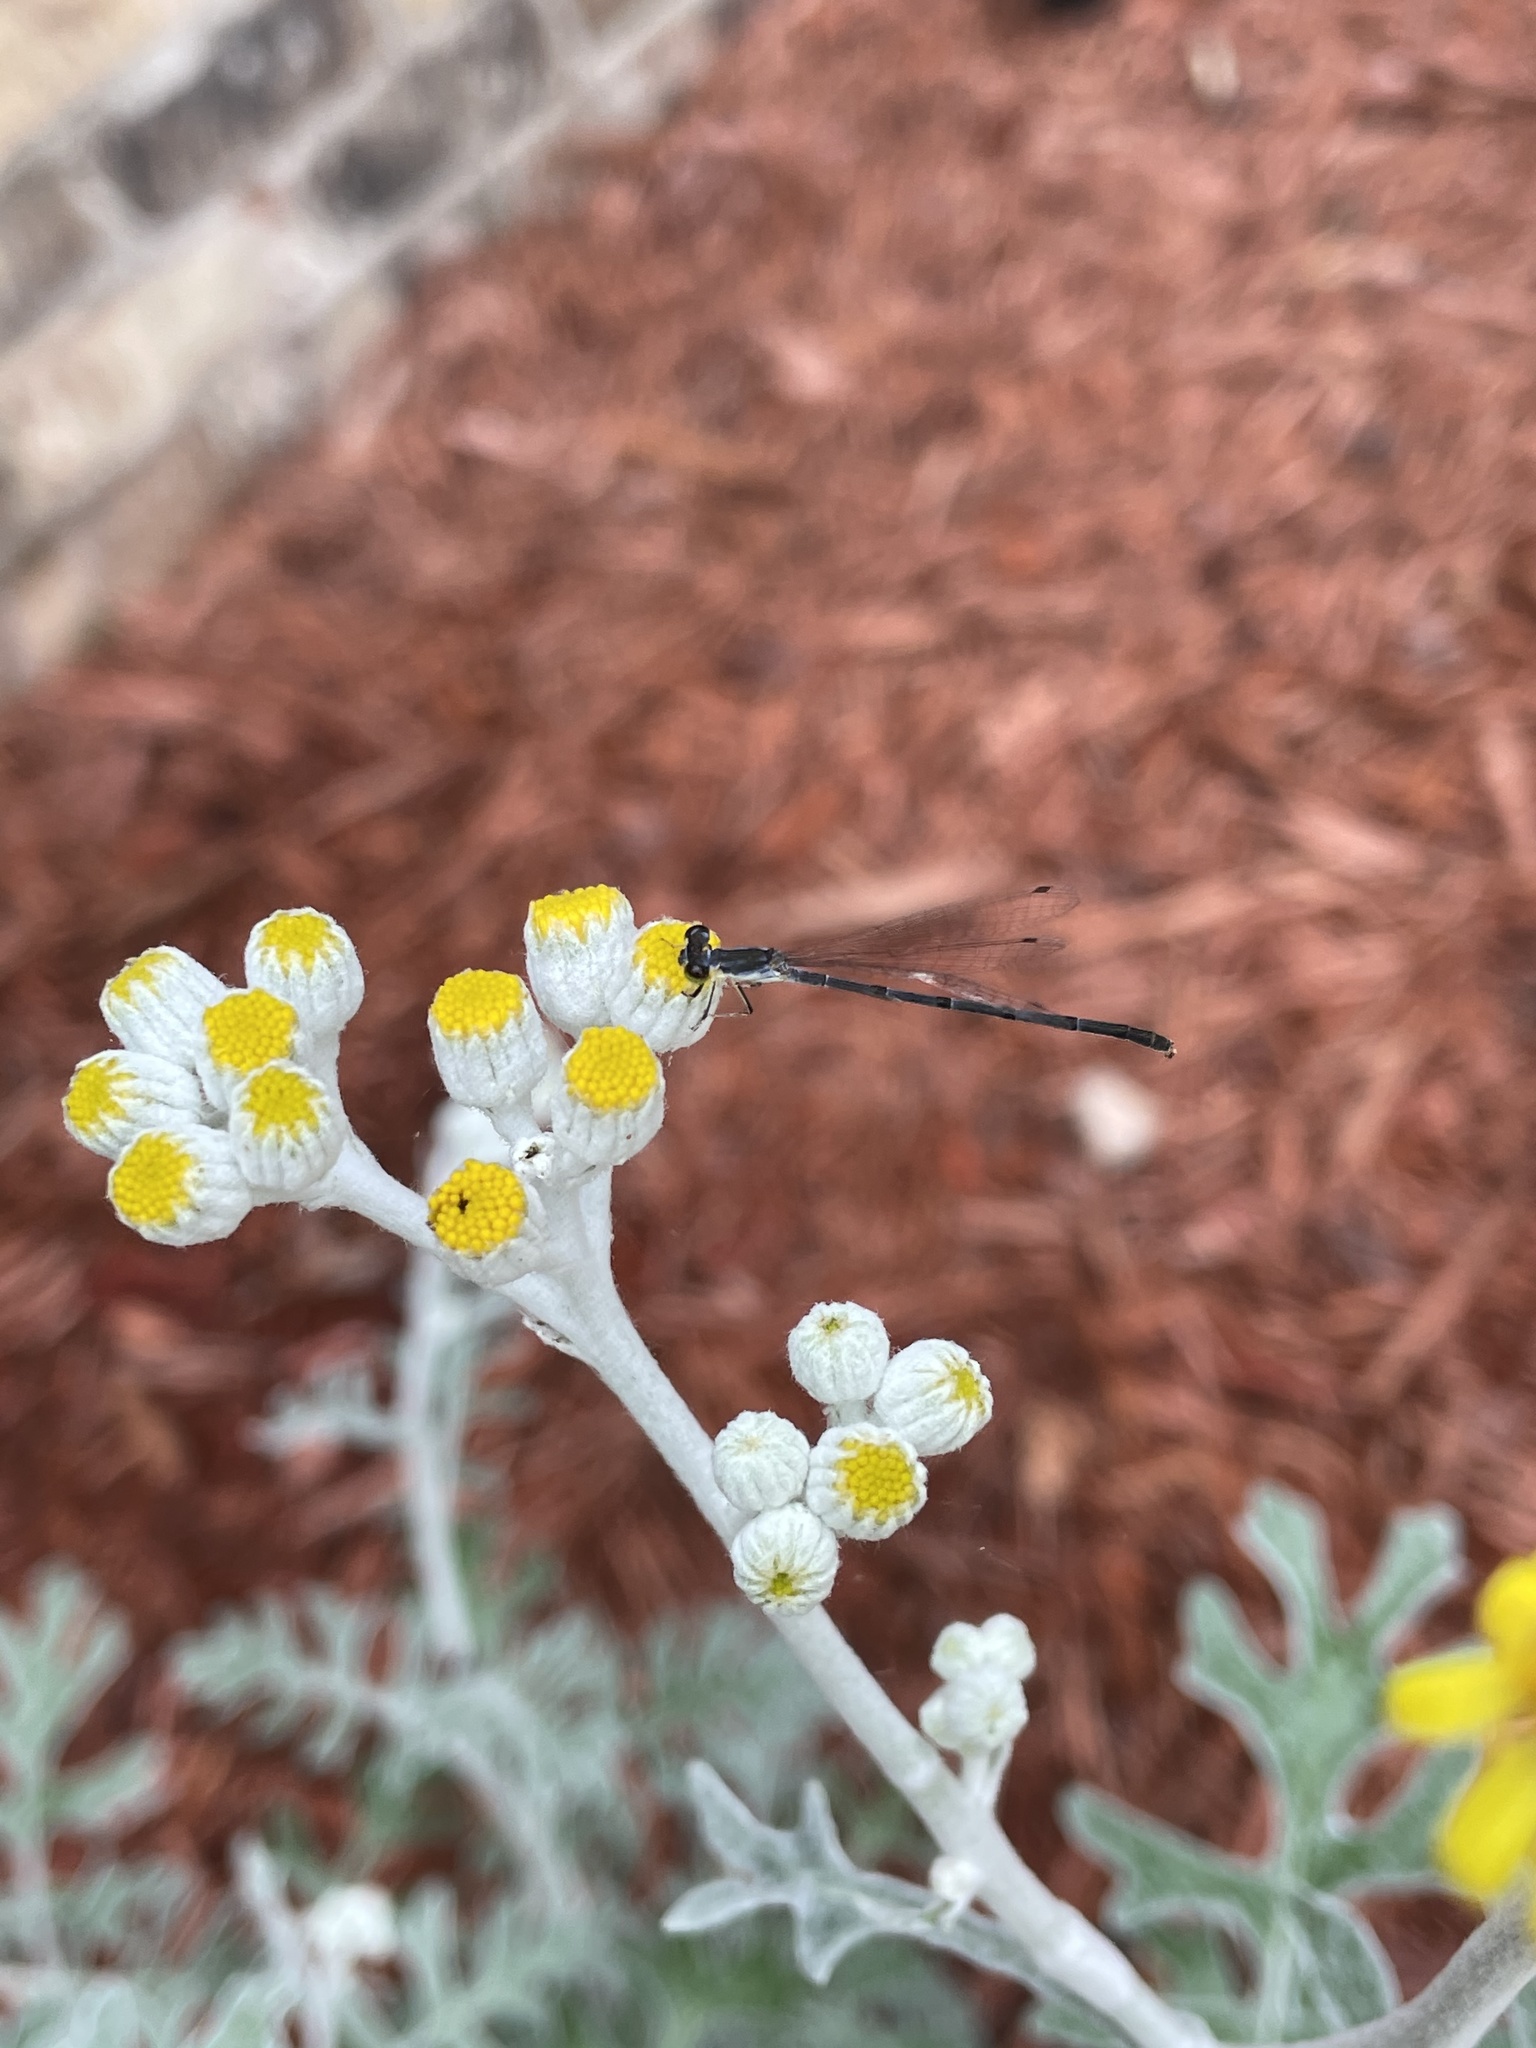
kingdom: Animalia
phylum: Arthropoda
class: Insecta
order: Odonata
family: Coenagrionidae
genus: Ischnura
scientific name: Ischnura posita
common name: Fragile forktail
